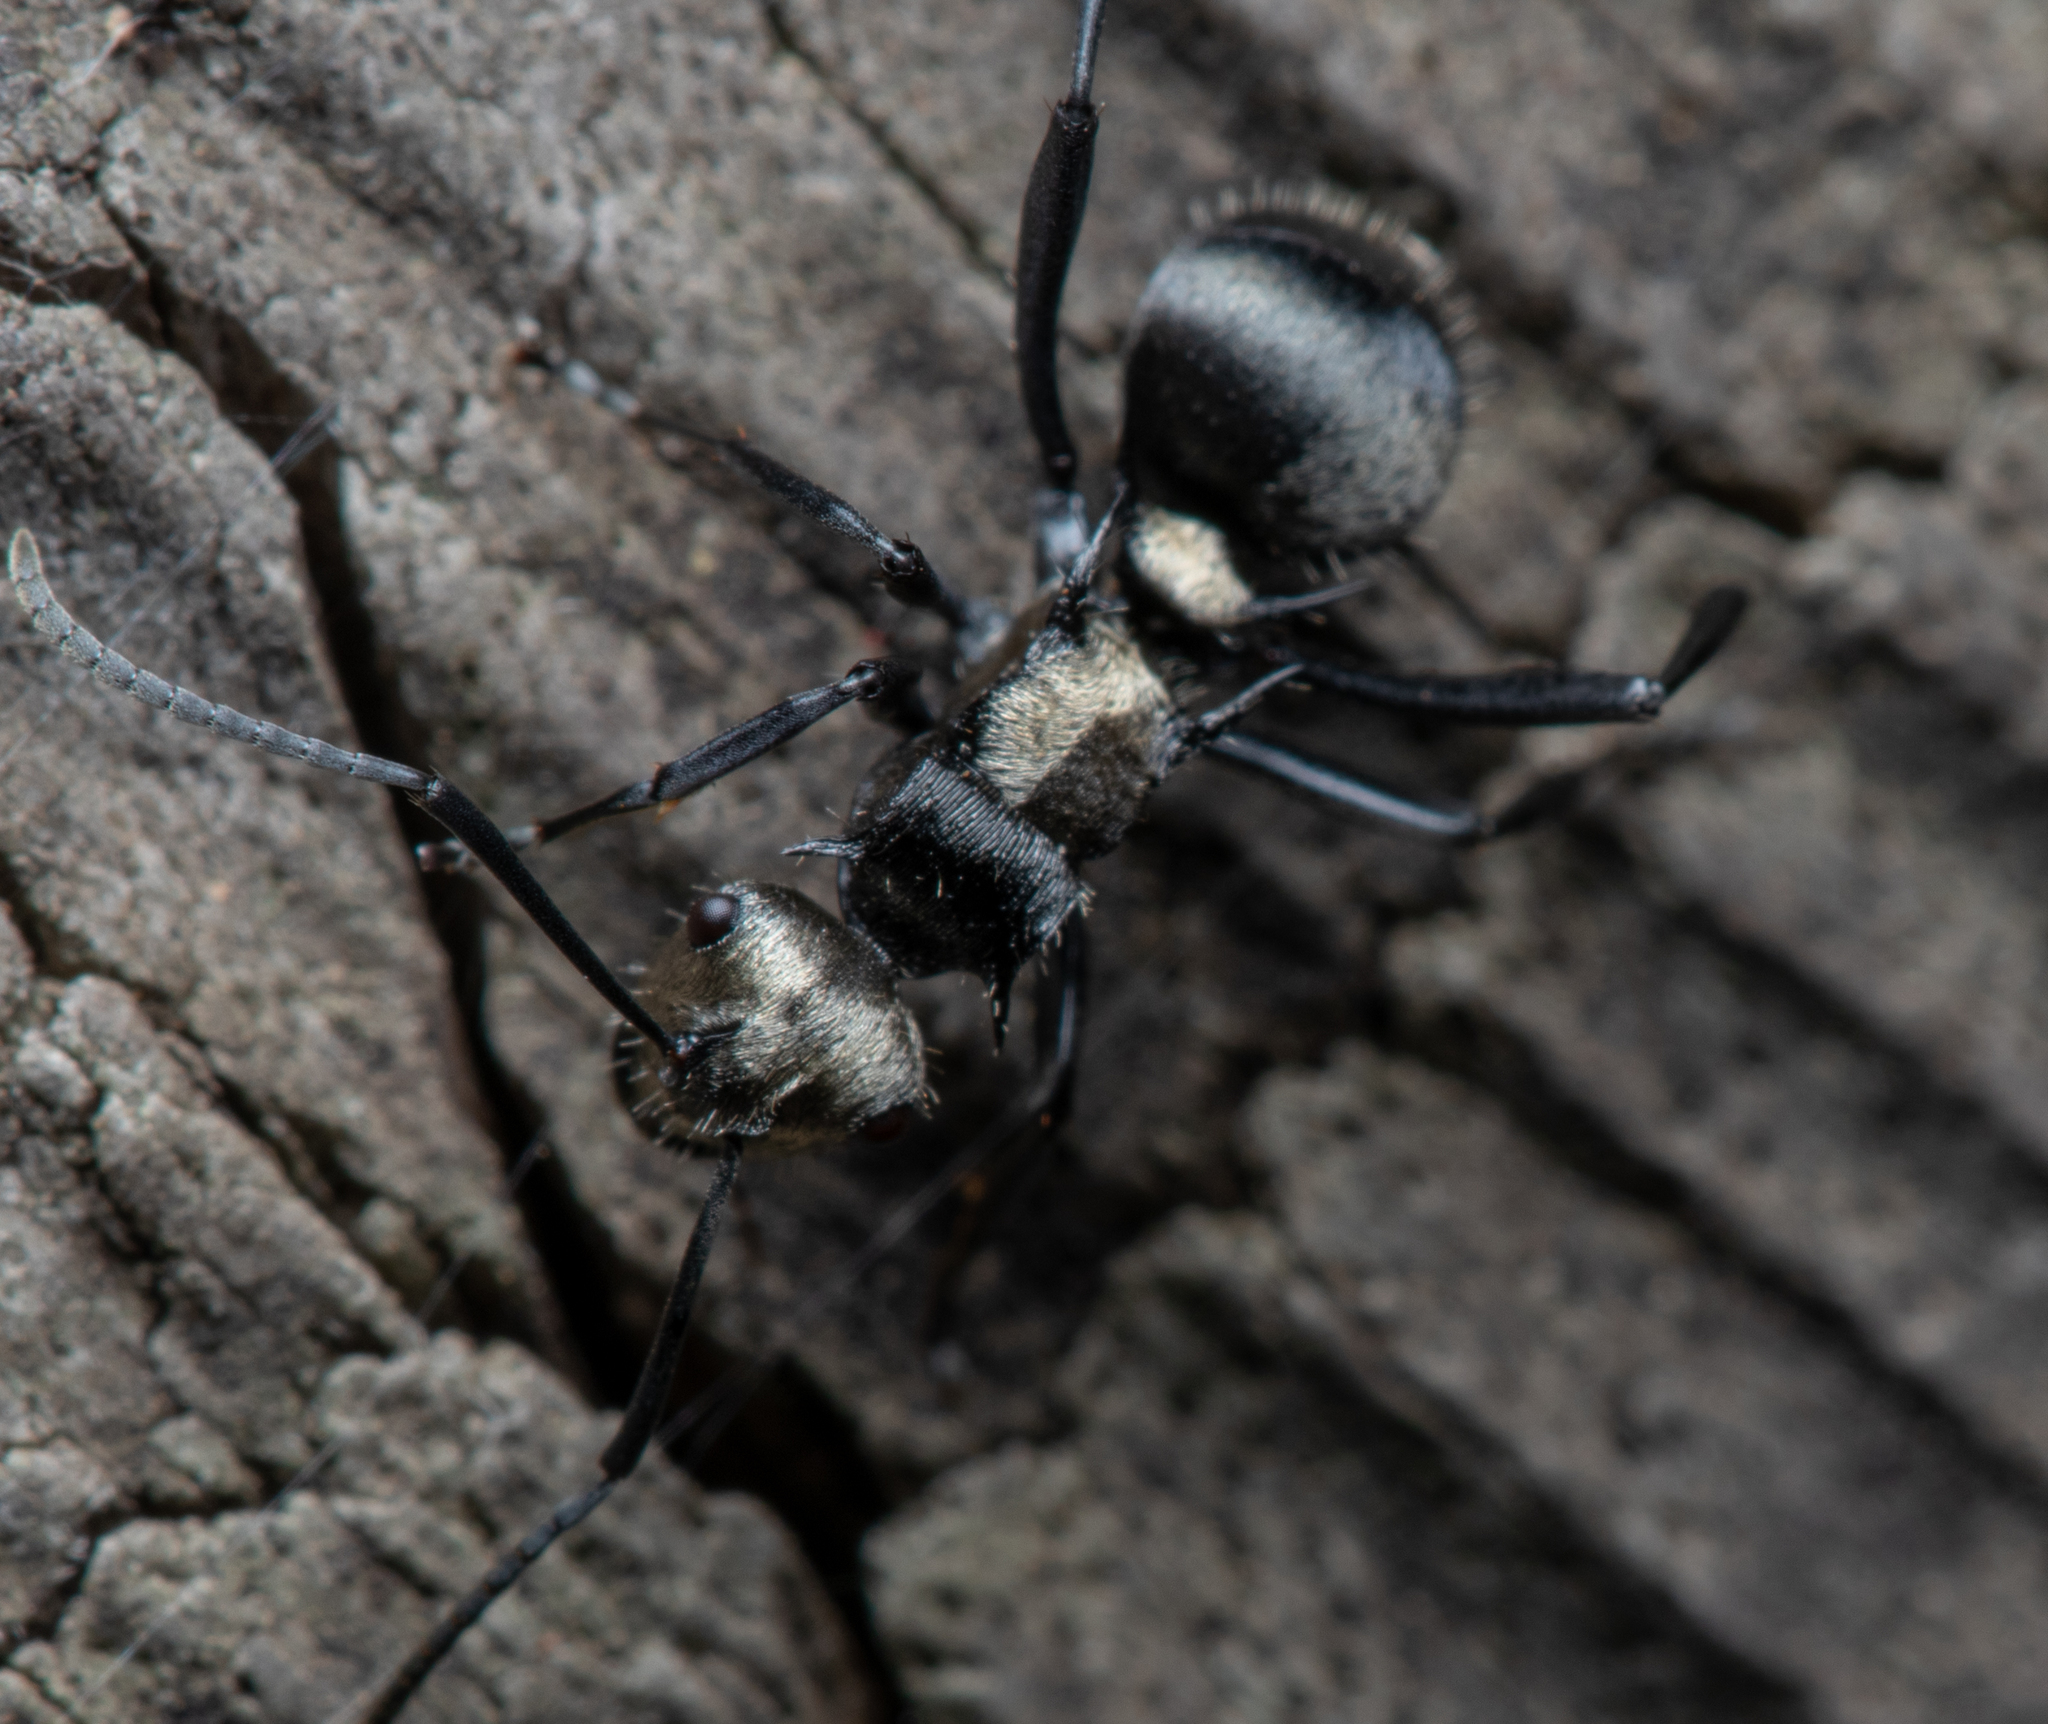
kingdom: Animalia
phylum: Arthropoda
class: Insecta
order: Hymenoptera
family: Formicidae
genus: Polyrhachis
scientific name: Polyrhachis daemeli
